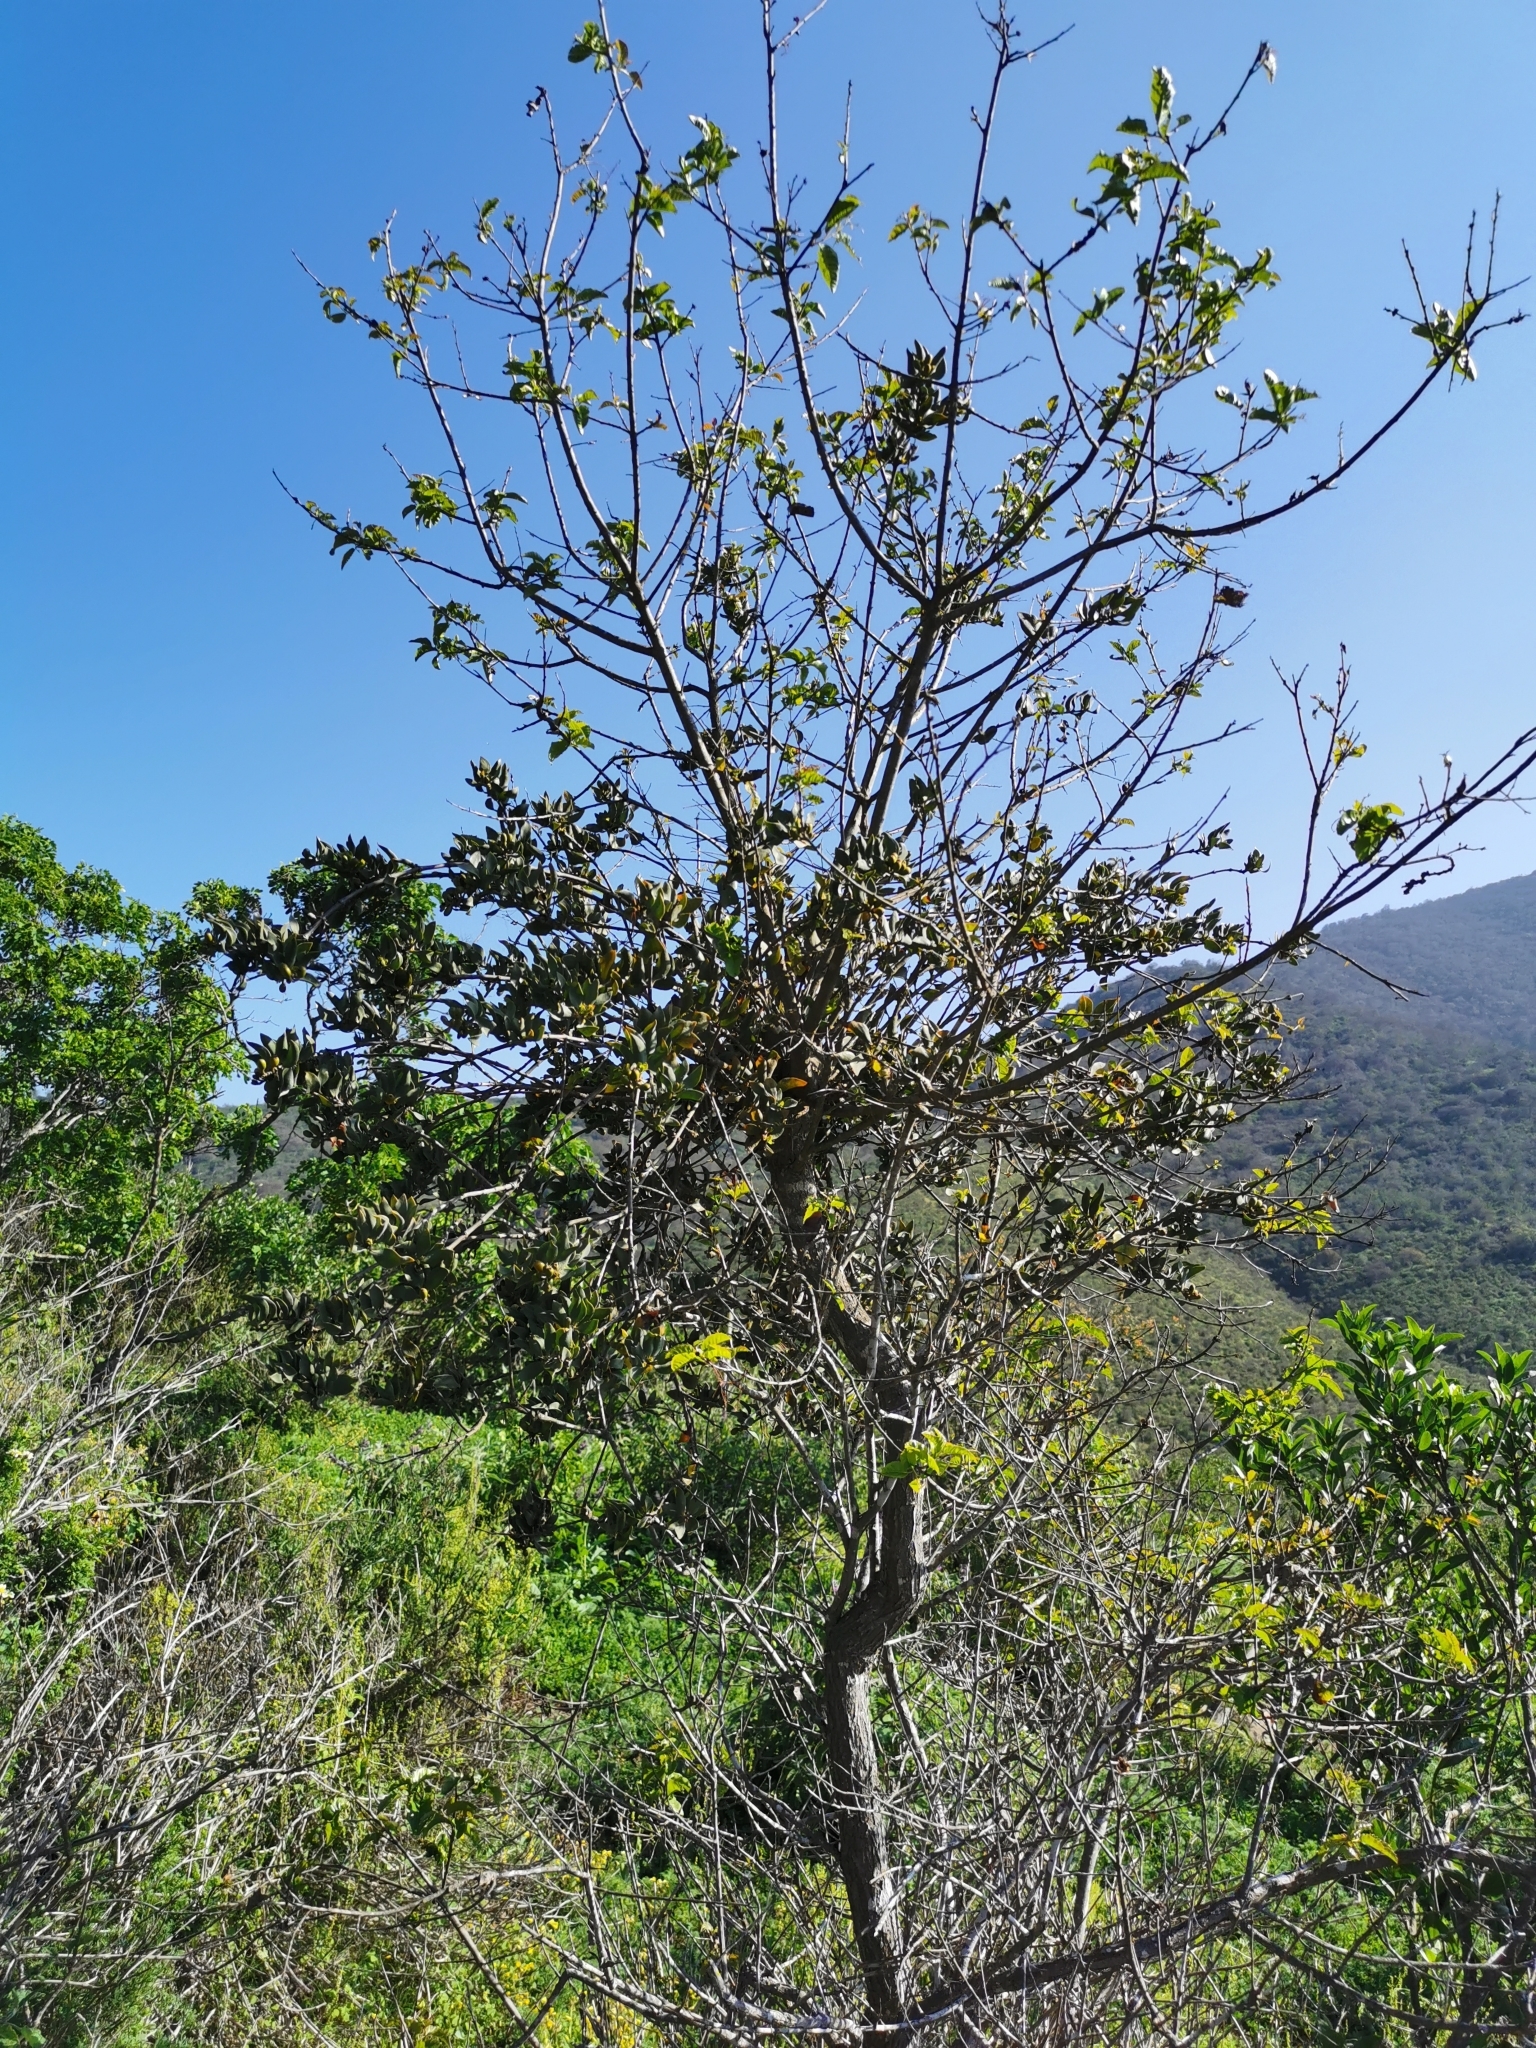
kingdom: Plantae
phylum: Tracheophyta
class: Magnoliopsida
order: Sapindales
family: Anacardiaceae
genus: Schinus
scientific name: Schinus latifolia
